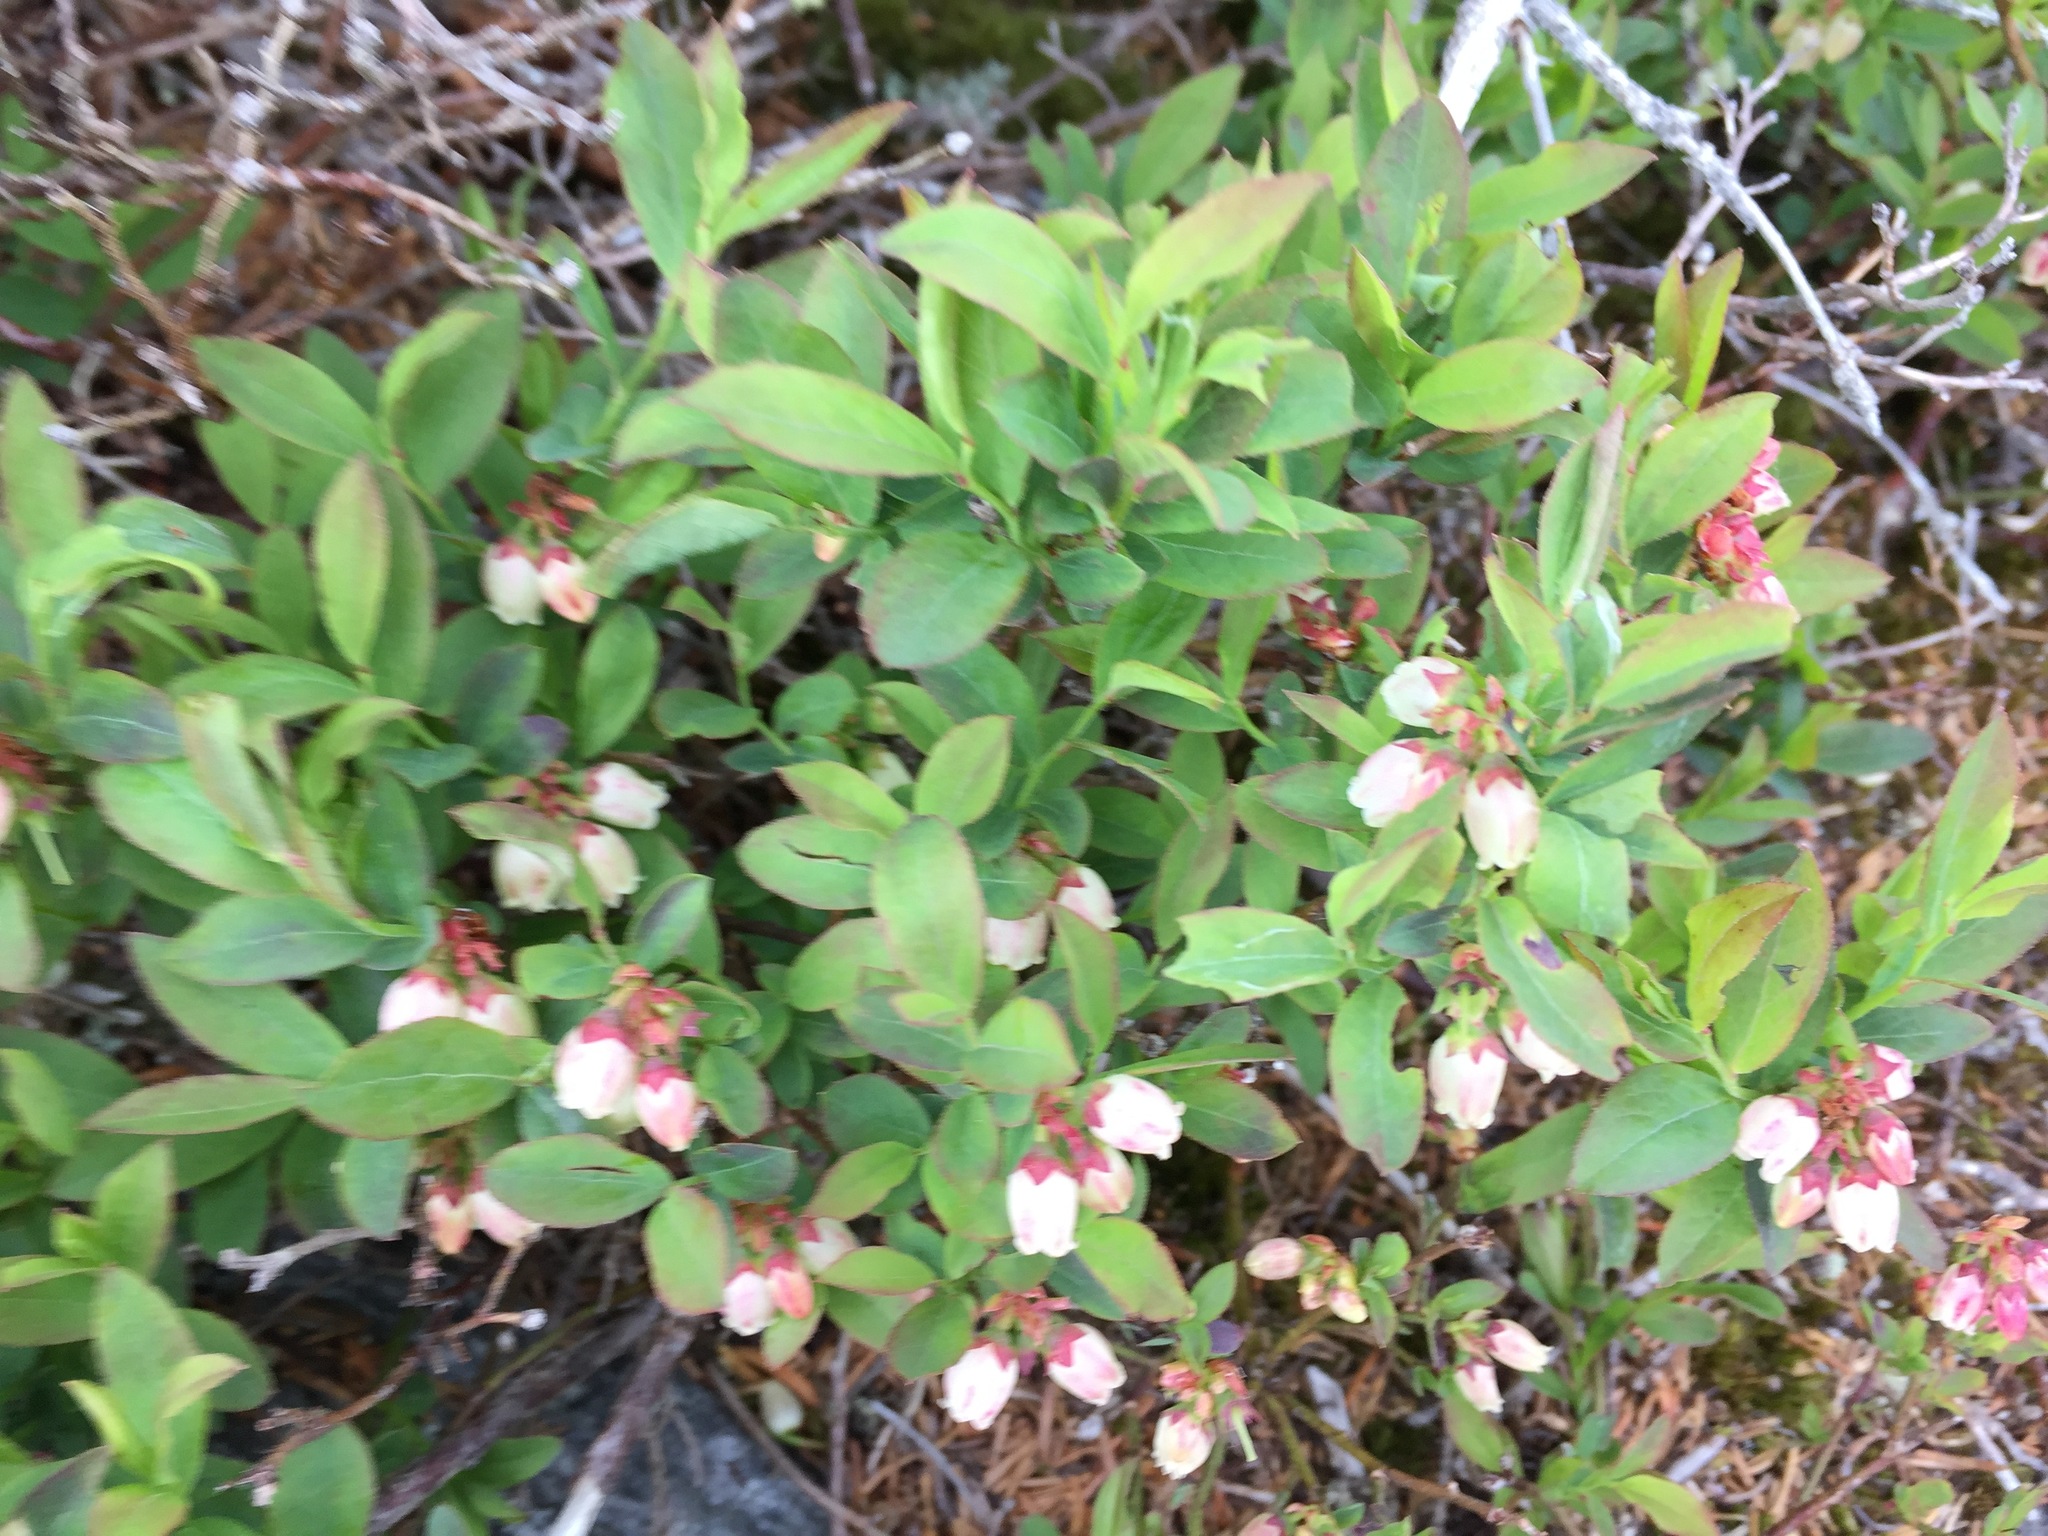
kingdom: Plantae
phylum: Tracheophyta
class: Magnoliopsida
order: Ericales
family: Ericaceae
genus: Vaccinium
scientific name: Vaccinium angustifolium
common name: Early lowbush blueberry
